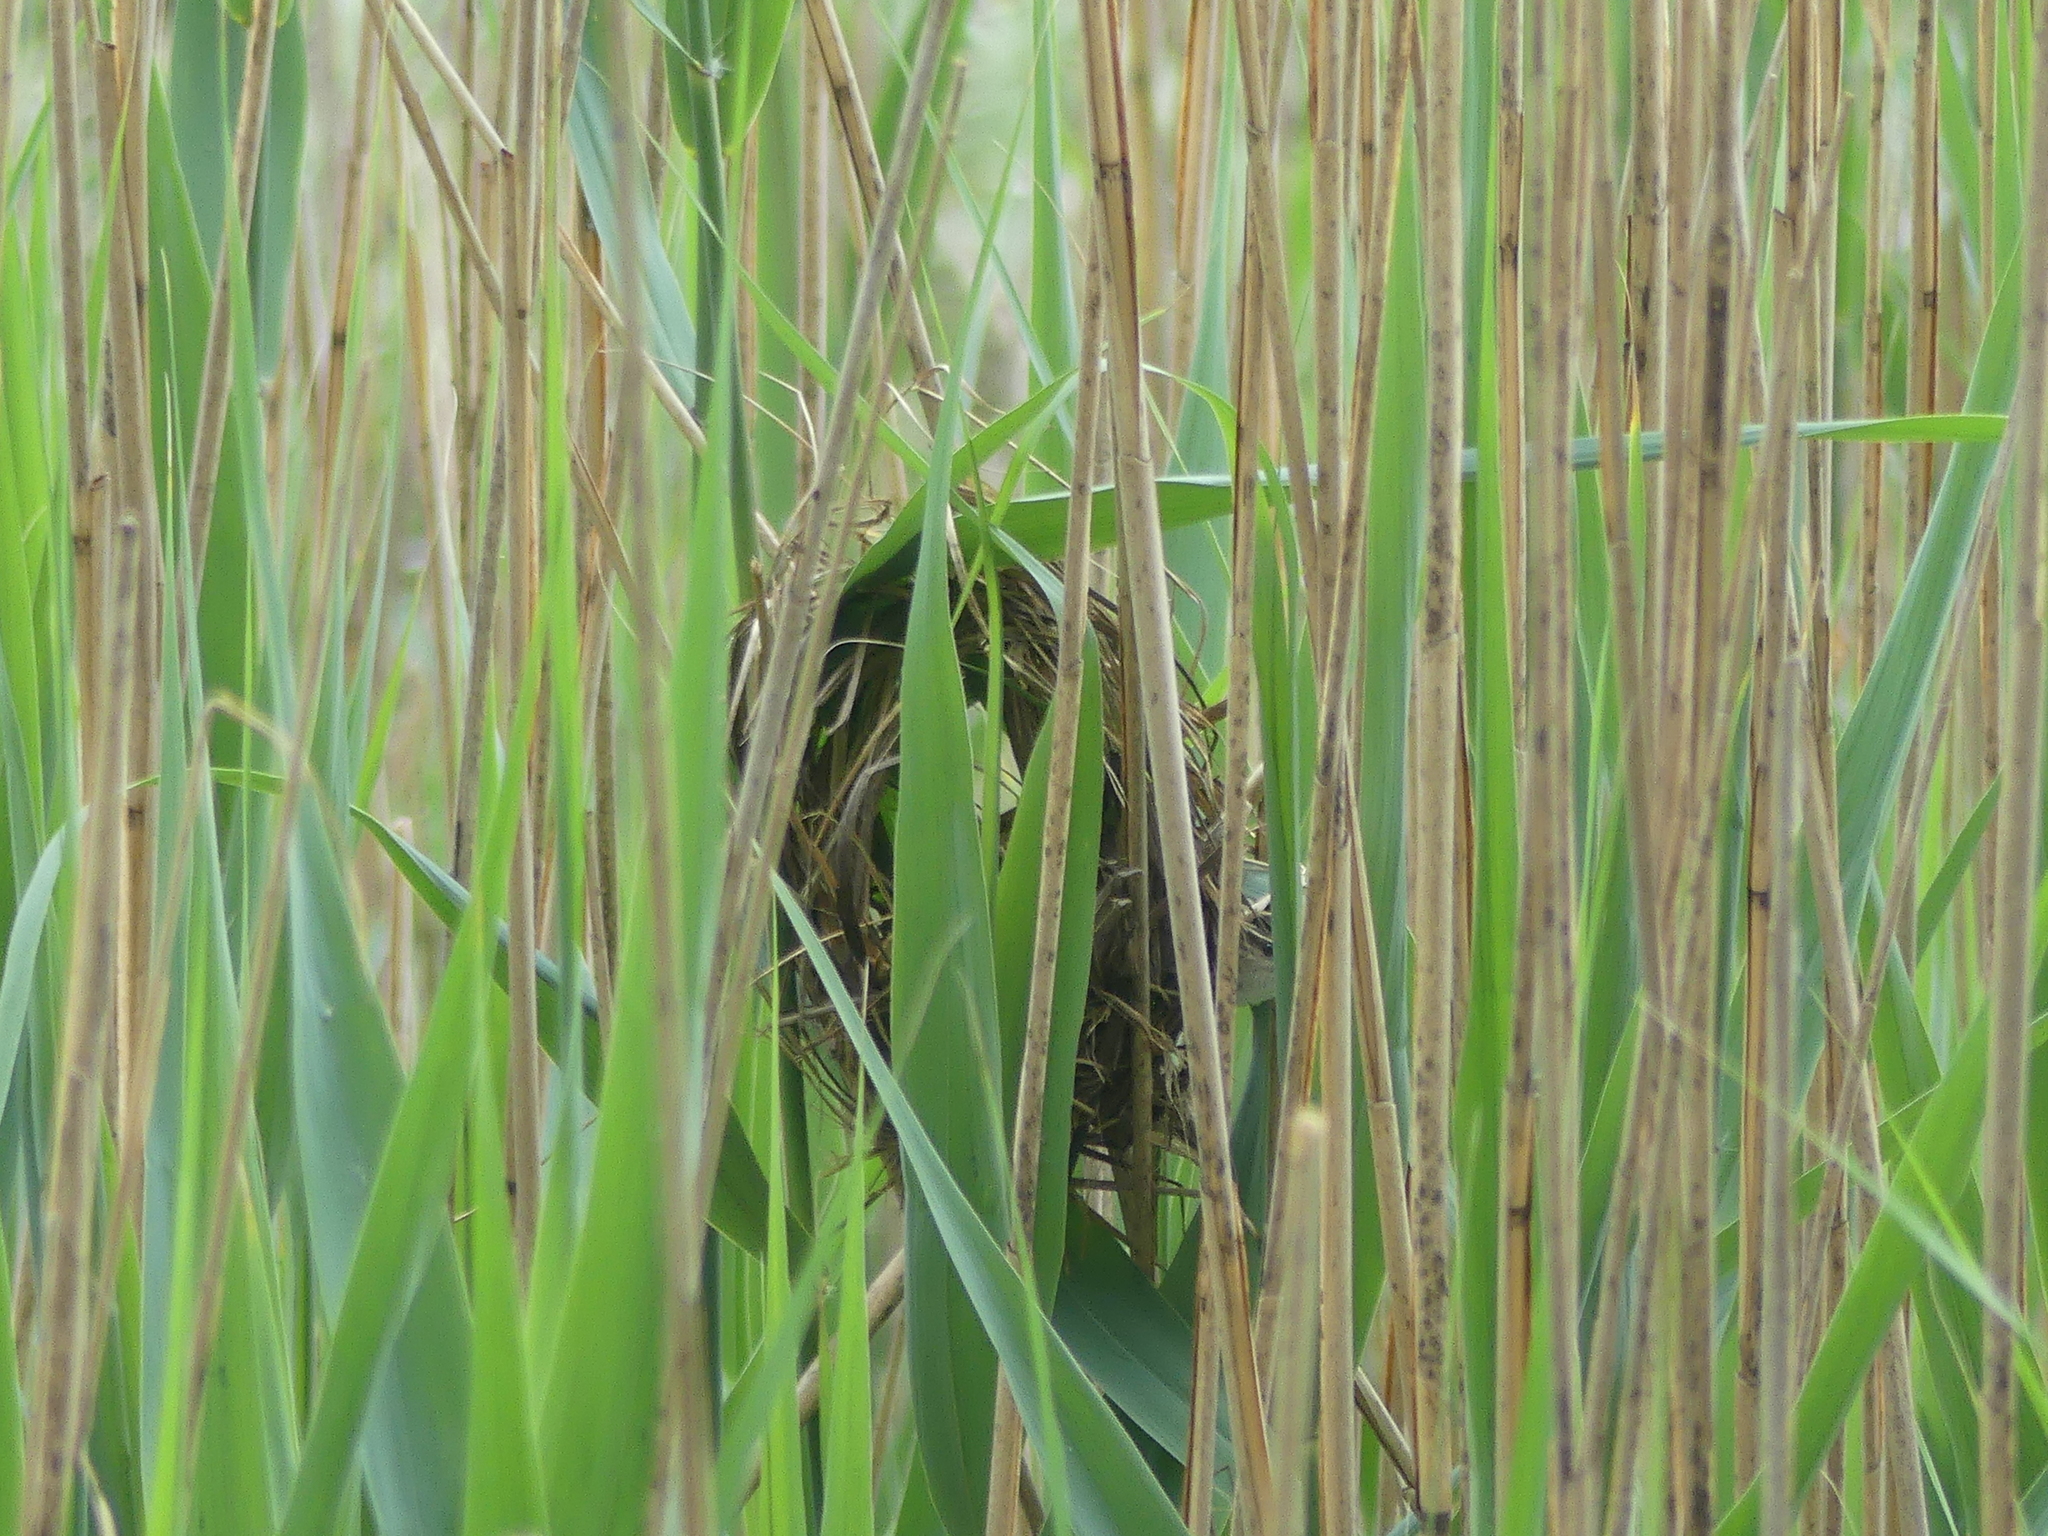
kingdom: Animalia
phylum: Chordata
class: Aves
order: Passeriformes
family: Troglodytidae
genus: Cistothorus
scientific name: Cistothorus palustris
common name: Marsh wren
